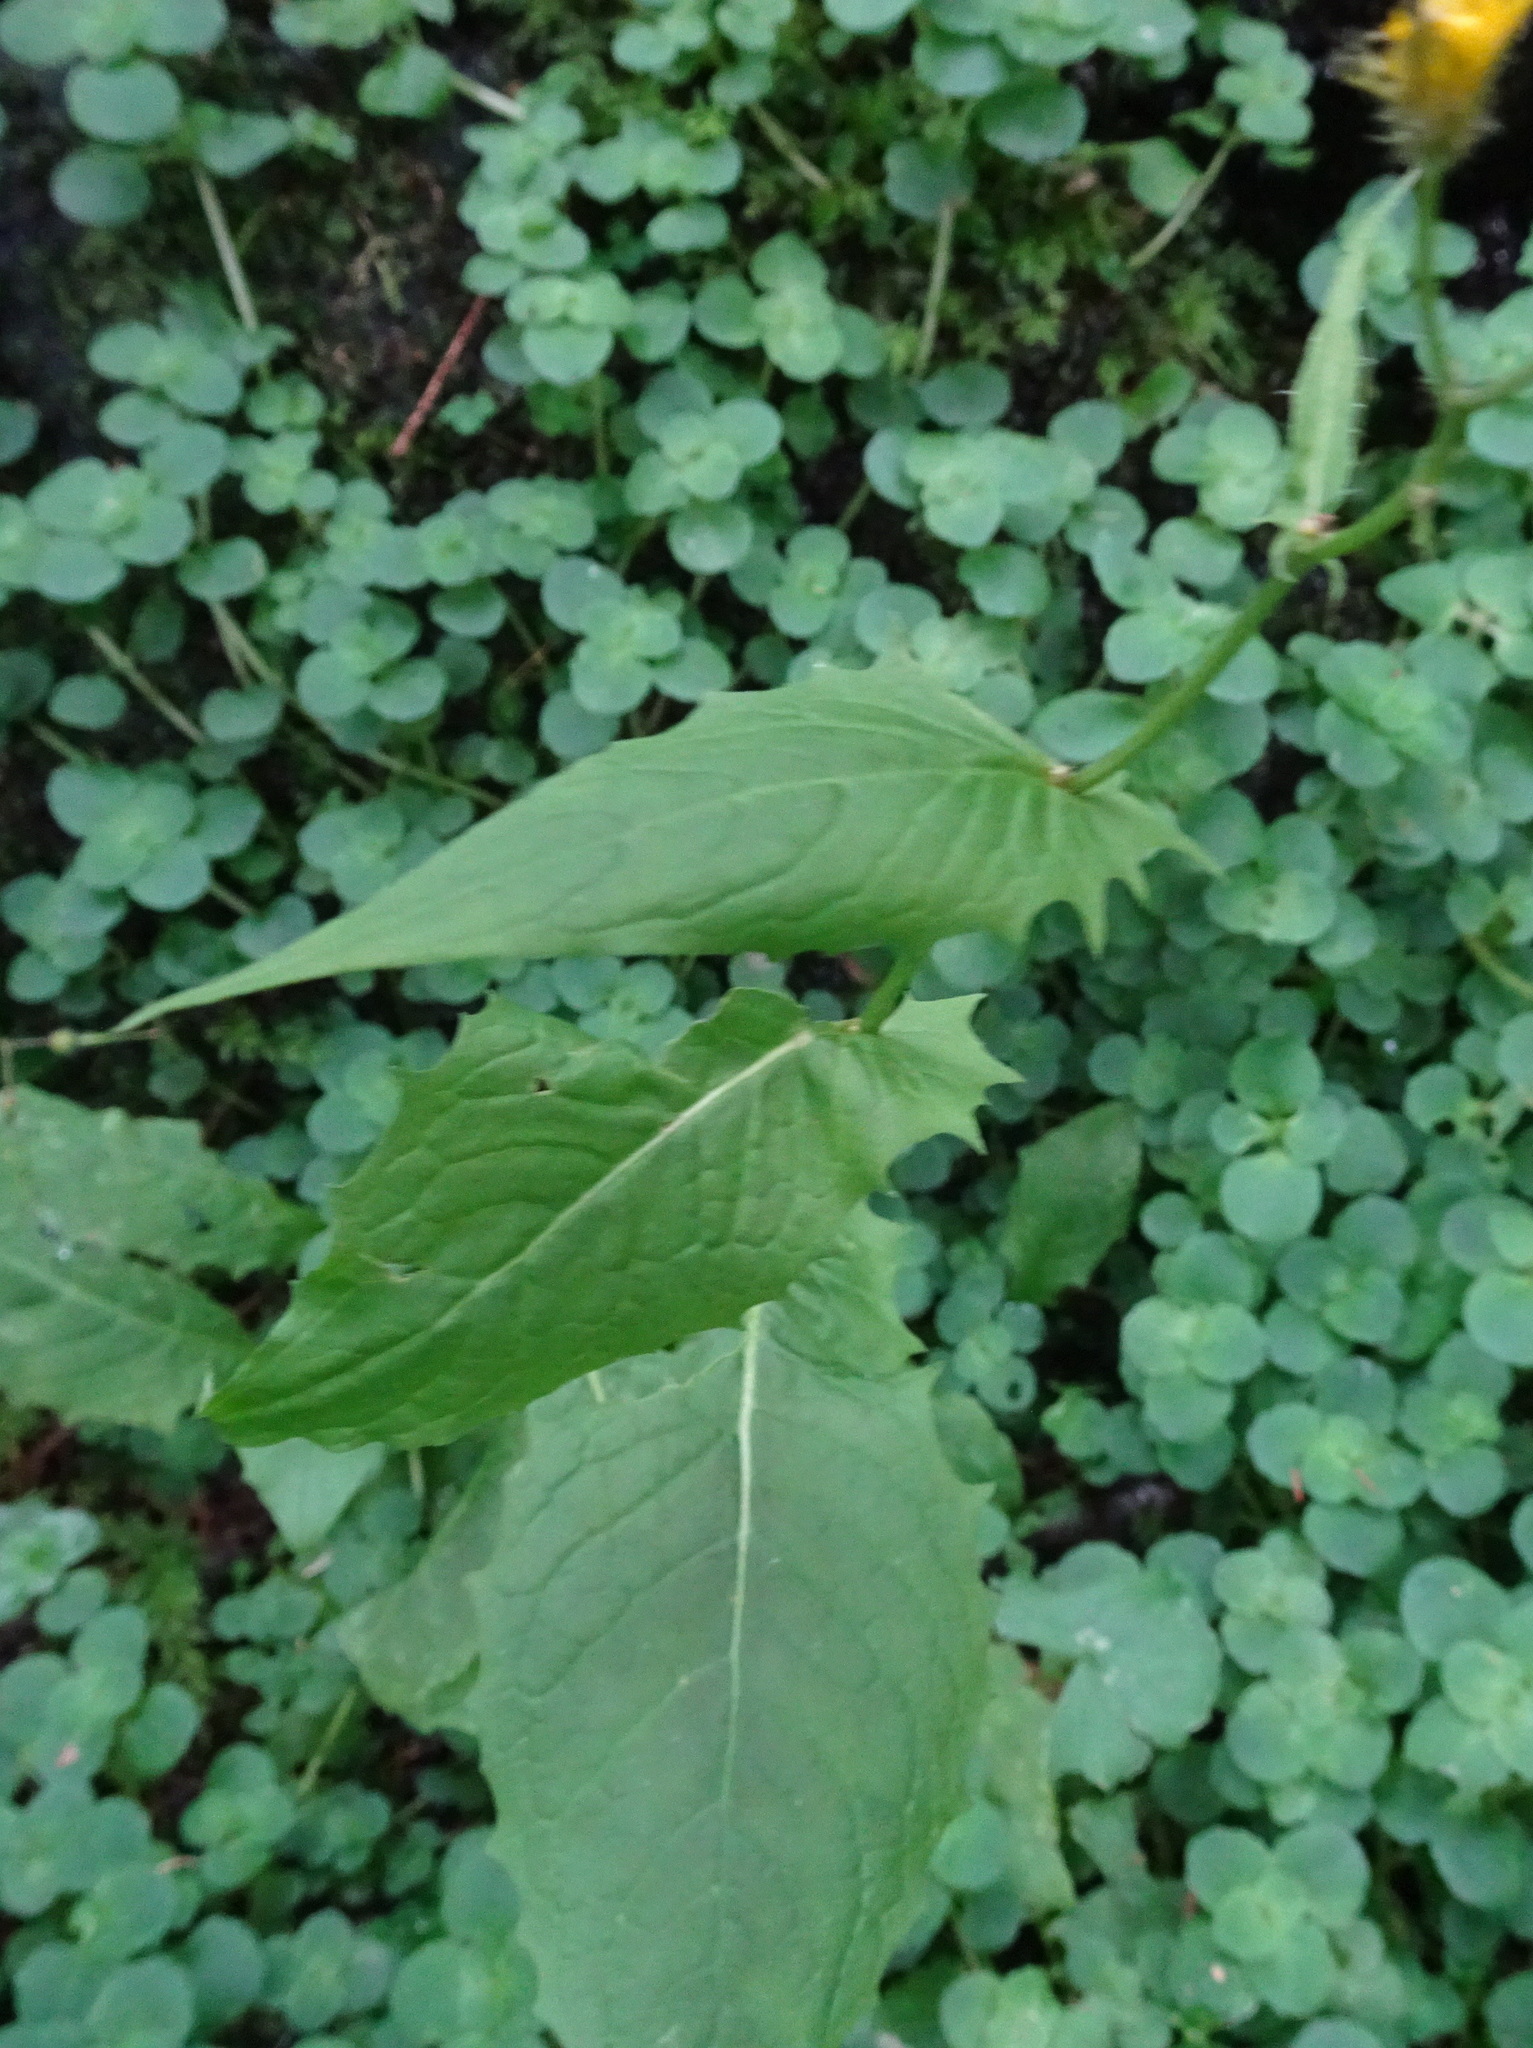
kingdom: Plantae
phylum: Tracheophyta
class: Magnoliopsida
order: Asterales
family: Asteraceae
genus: Crepis
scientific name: Crepis paludosa
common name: Marsh hawk's-beard
